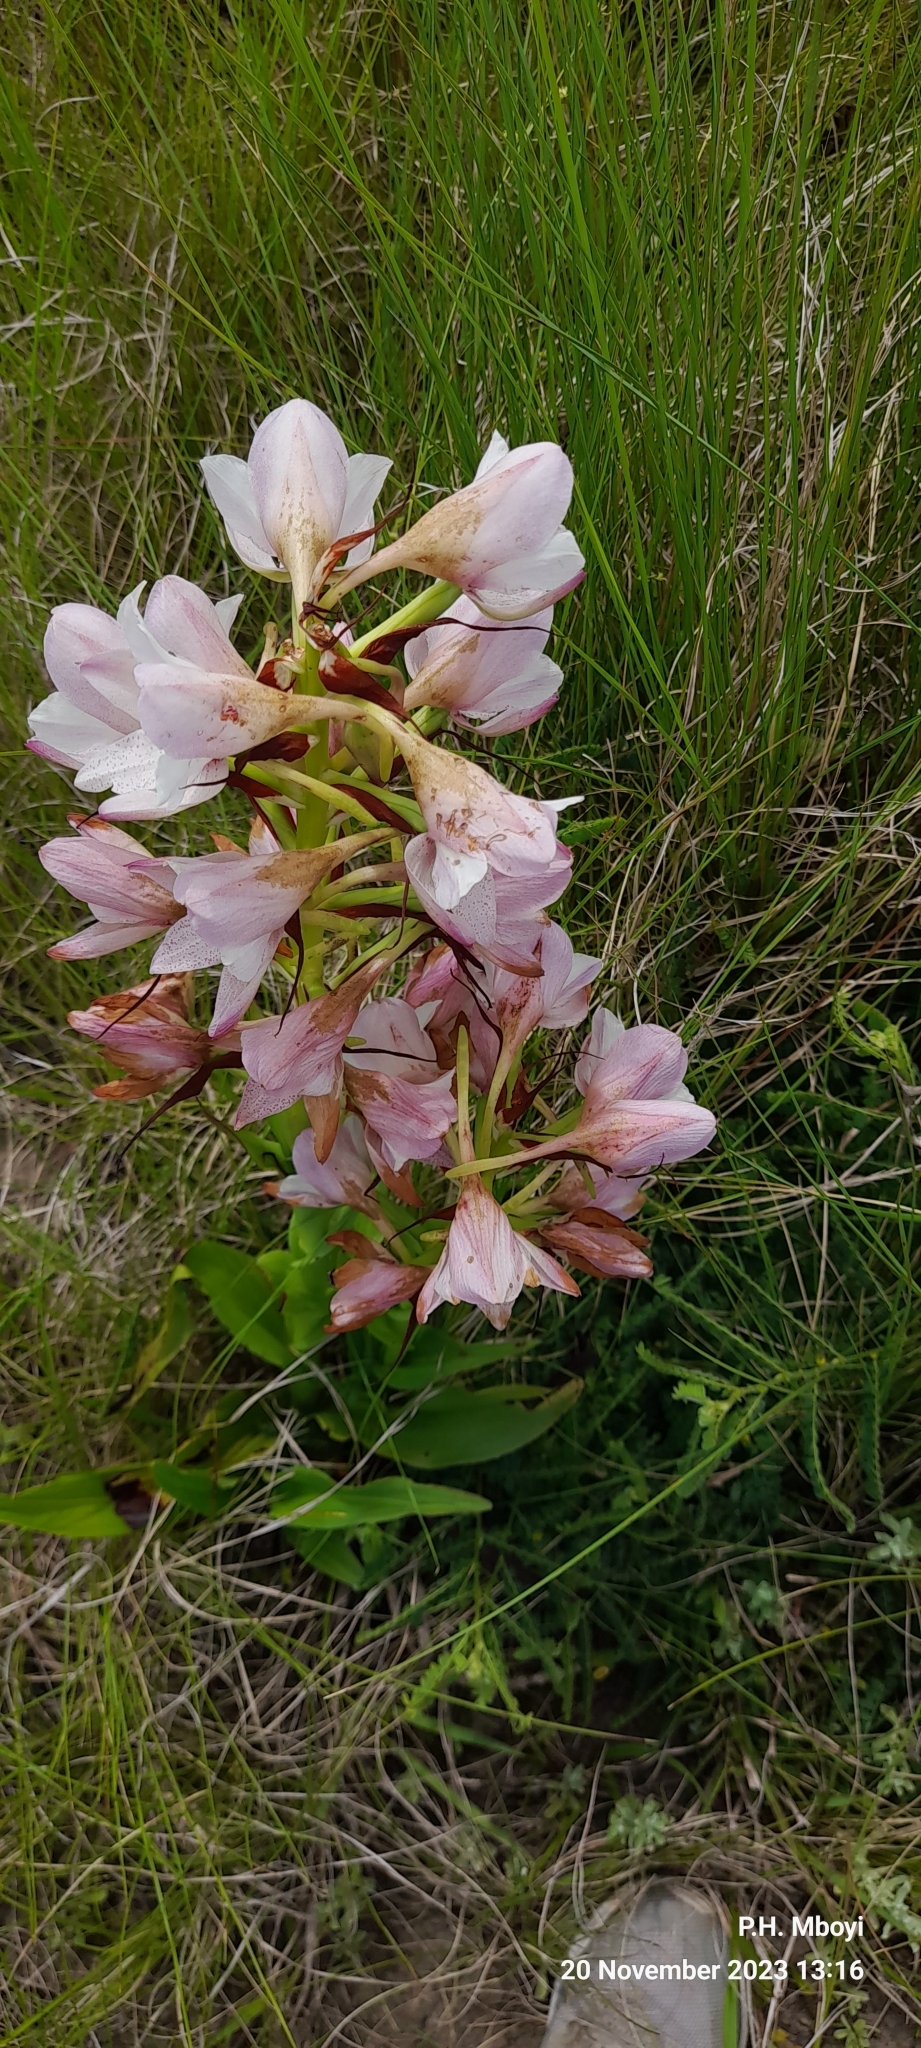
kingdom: Plantae
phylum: Tracheophyta
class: Liliopsida
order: Asparagales
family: Orchidaceae
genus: Disa
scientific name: Disa crassicornis
